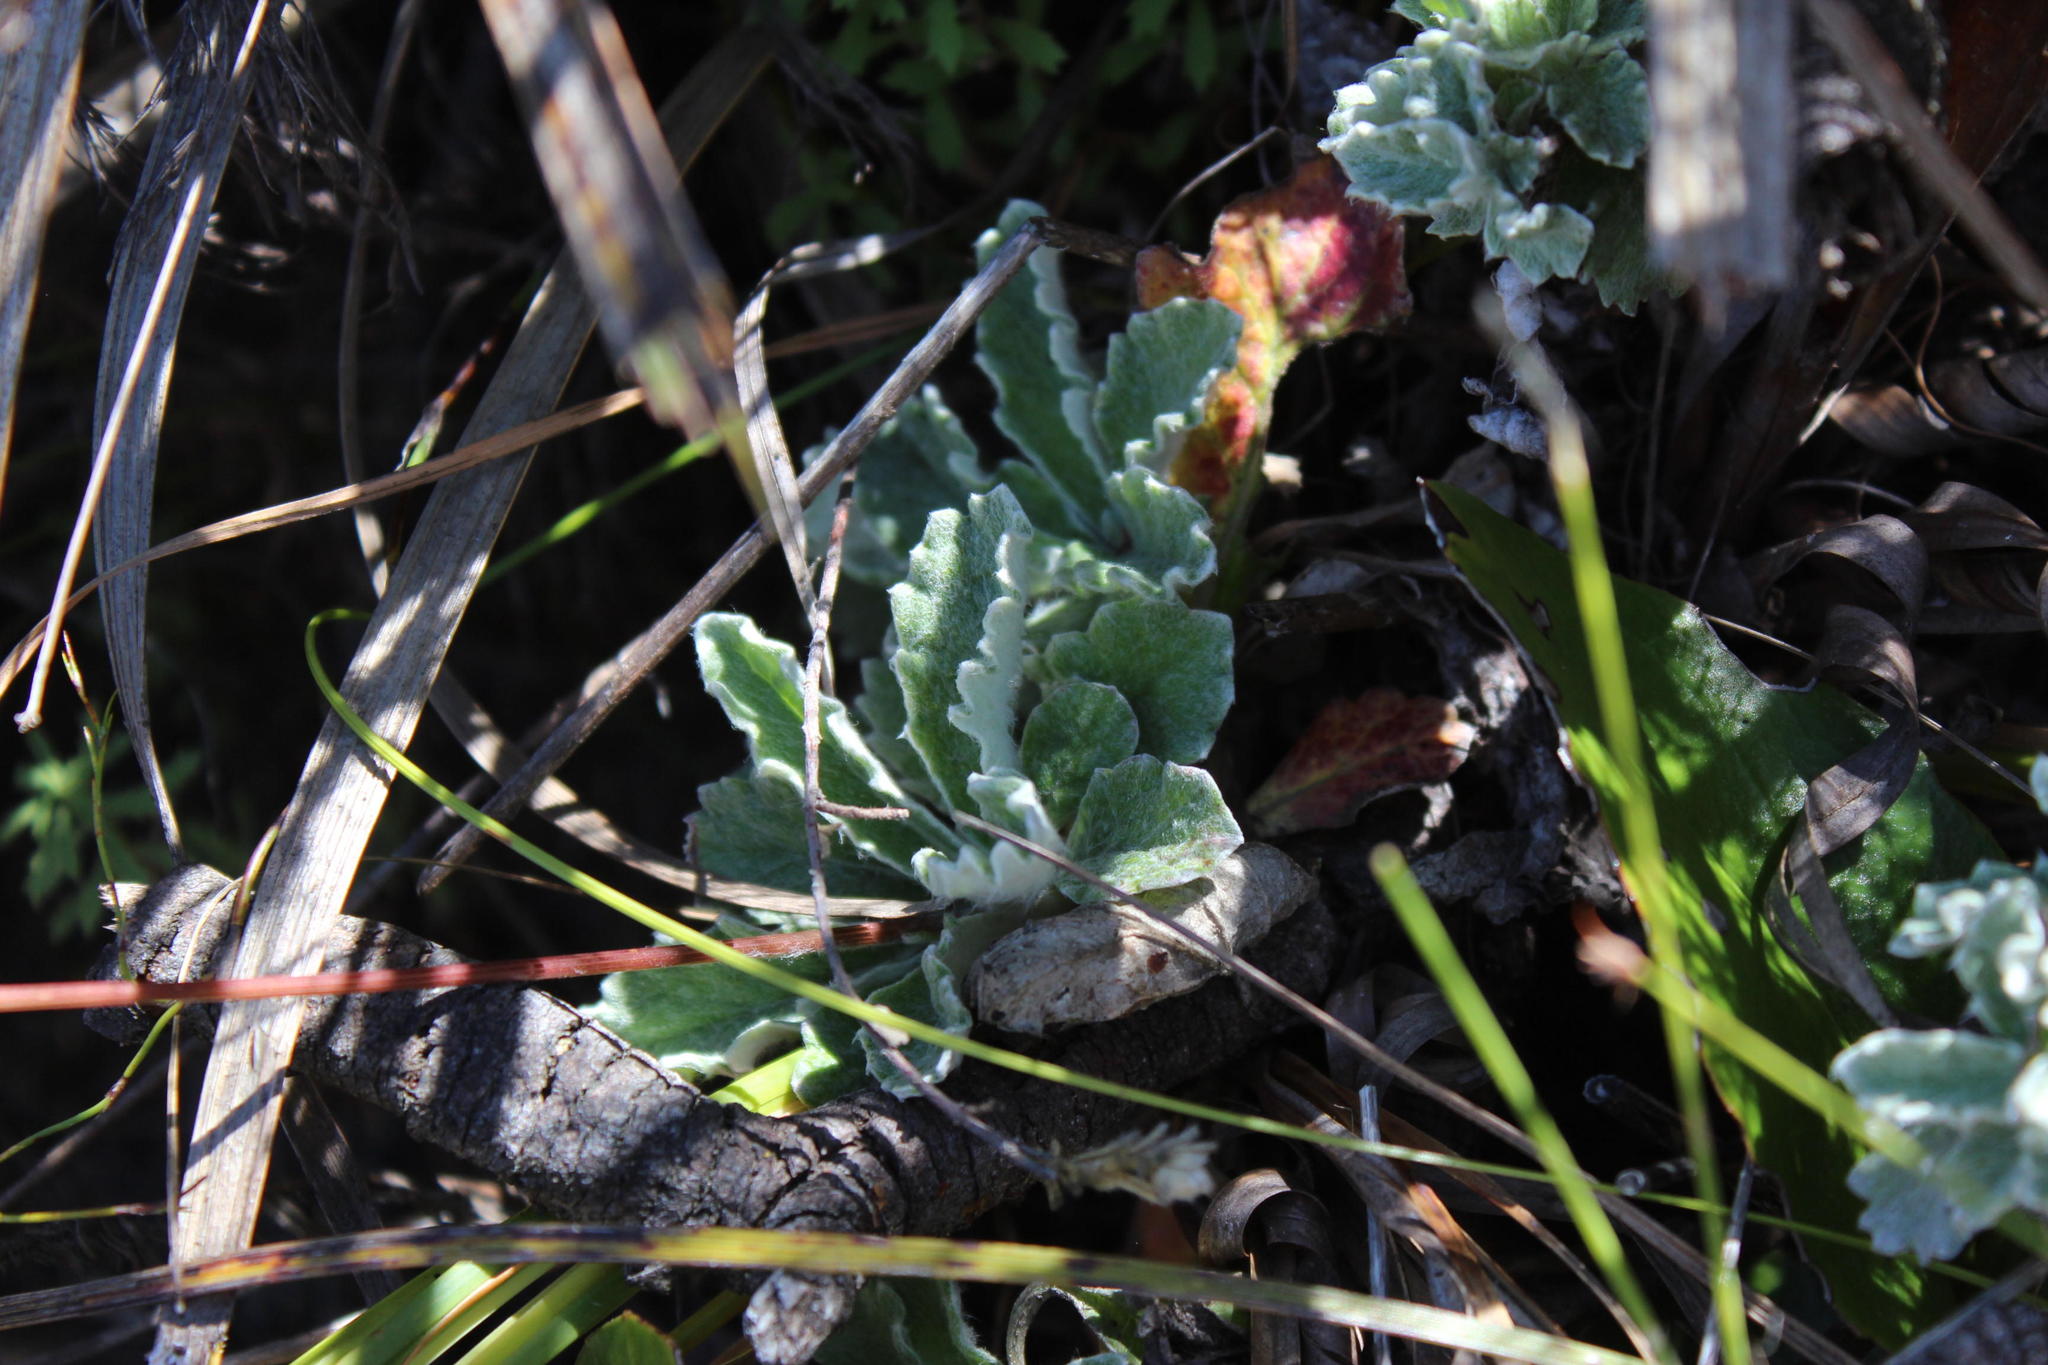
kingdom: Plantae
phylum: Tracheophyta
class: Magnoliopsida
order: Apiales
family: Apiaceae
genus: Hermas
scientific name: Hermas quercifolia
